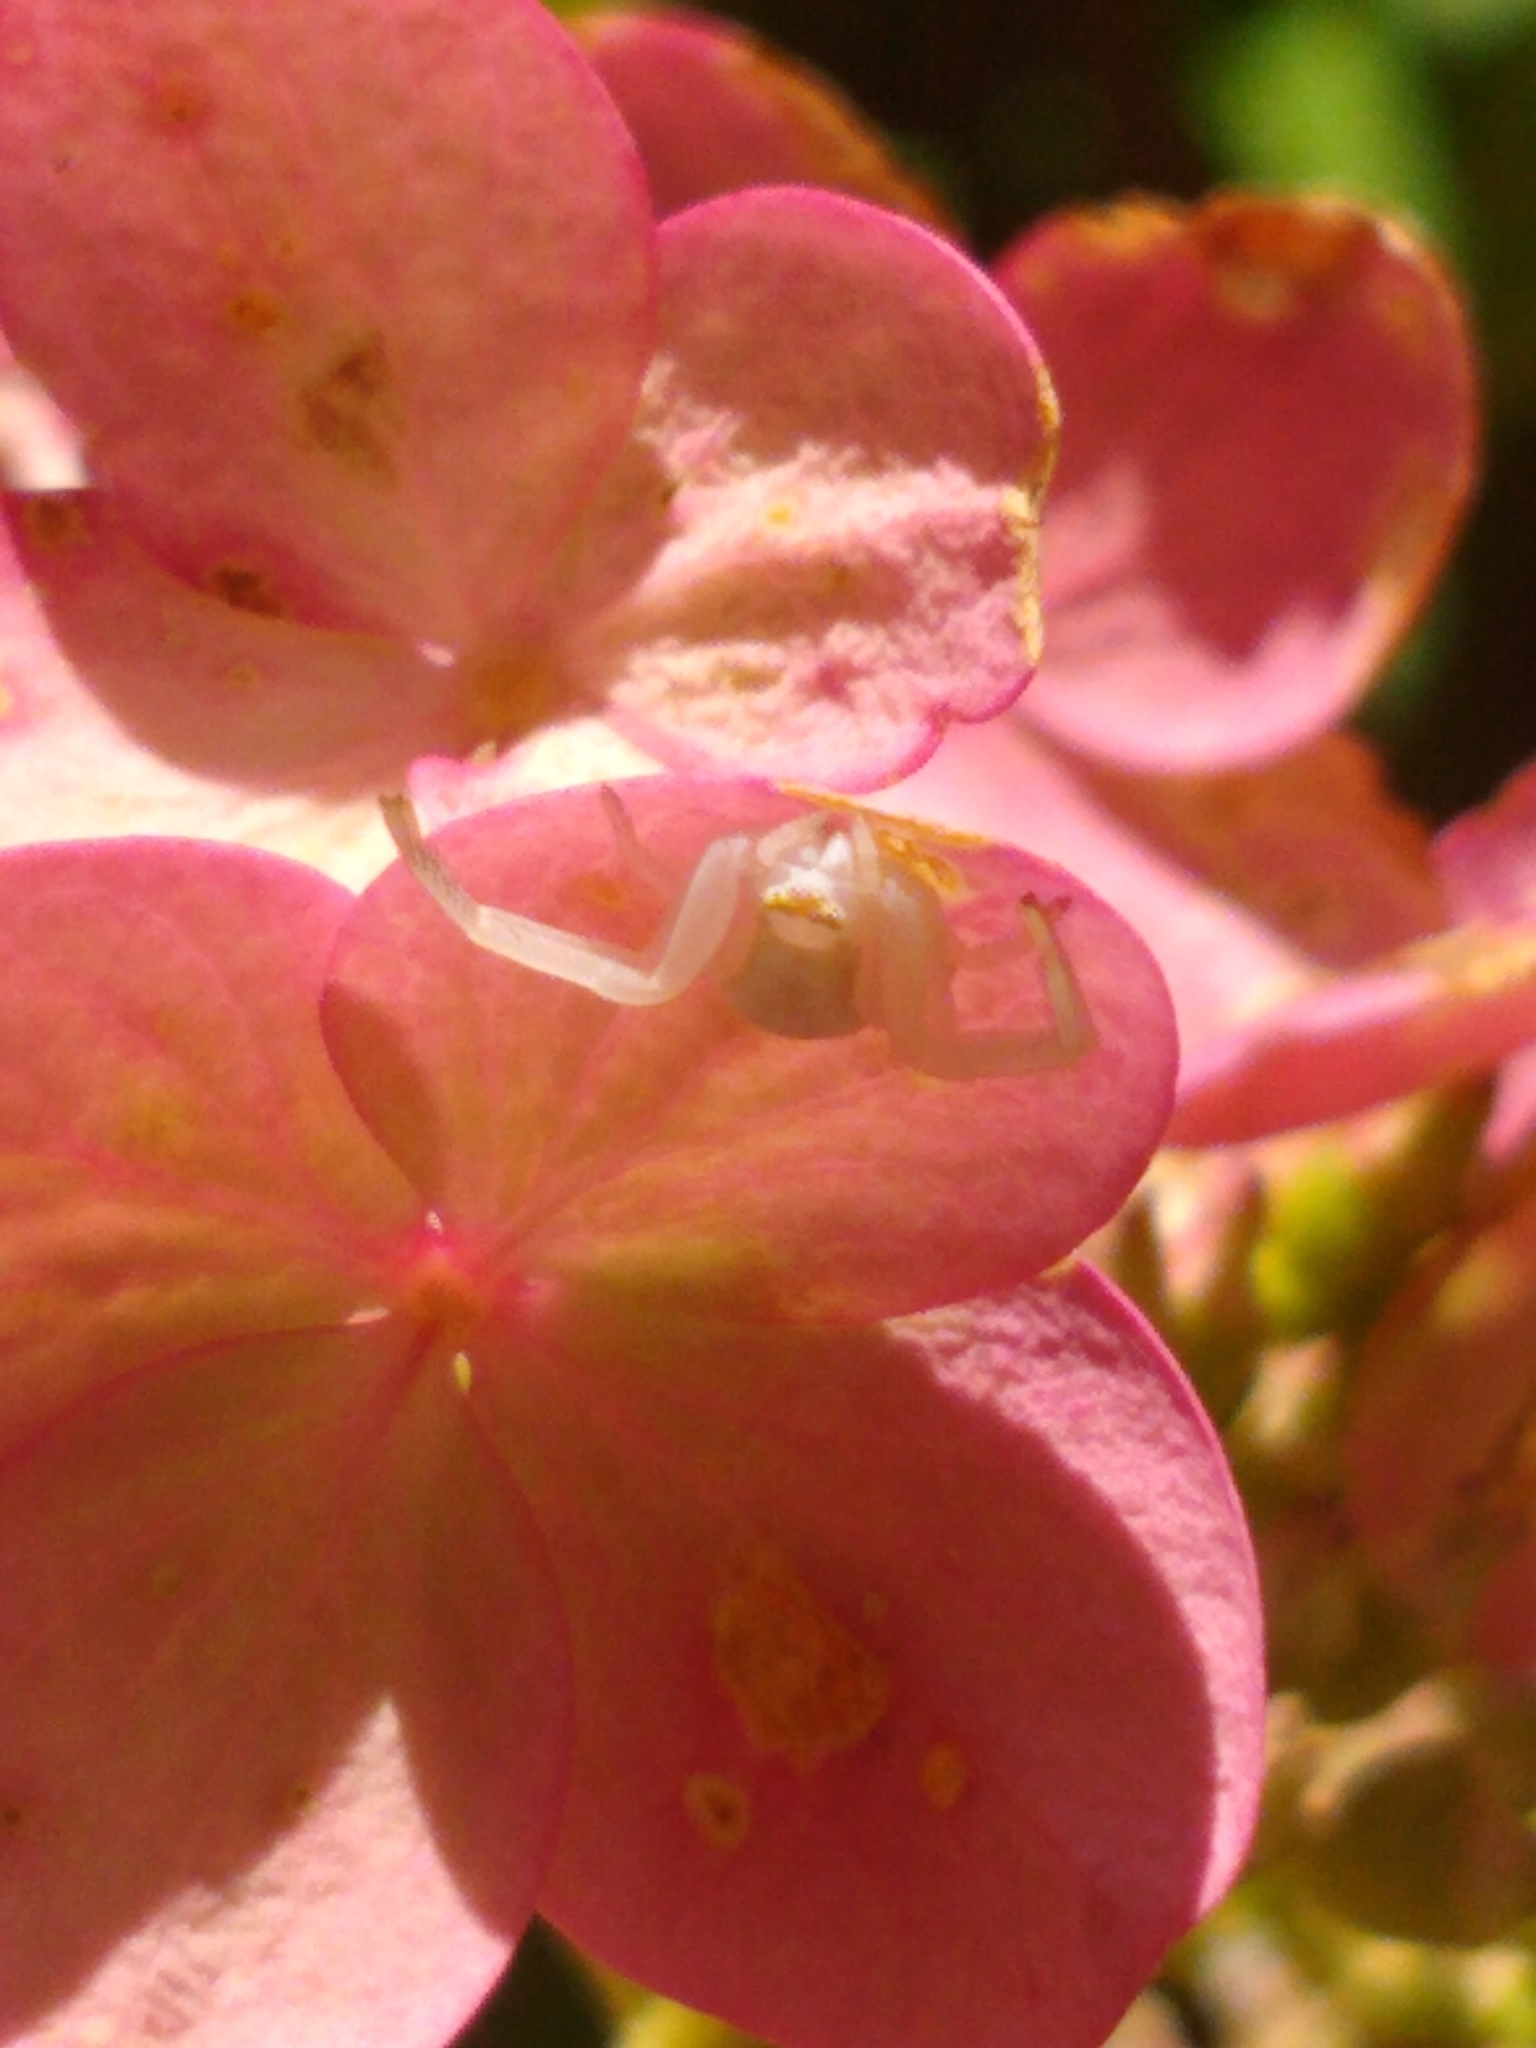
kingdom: Animalia
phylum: Arthropoda
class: Arachnida
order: Araneae
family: Thomisidae
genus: Misumena
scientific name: Misumena vatia
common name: Goldenrod crab spider
